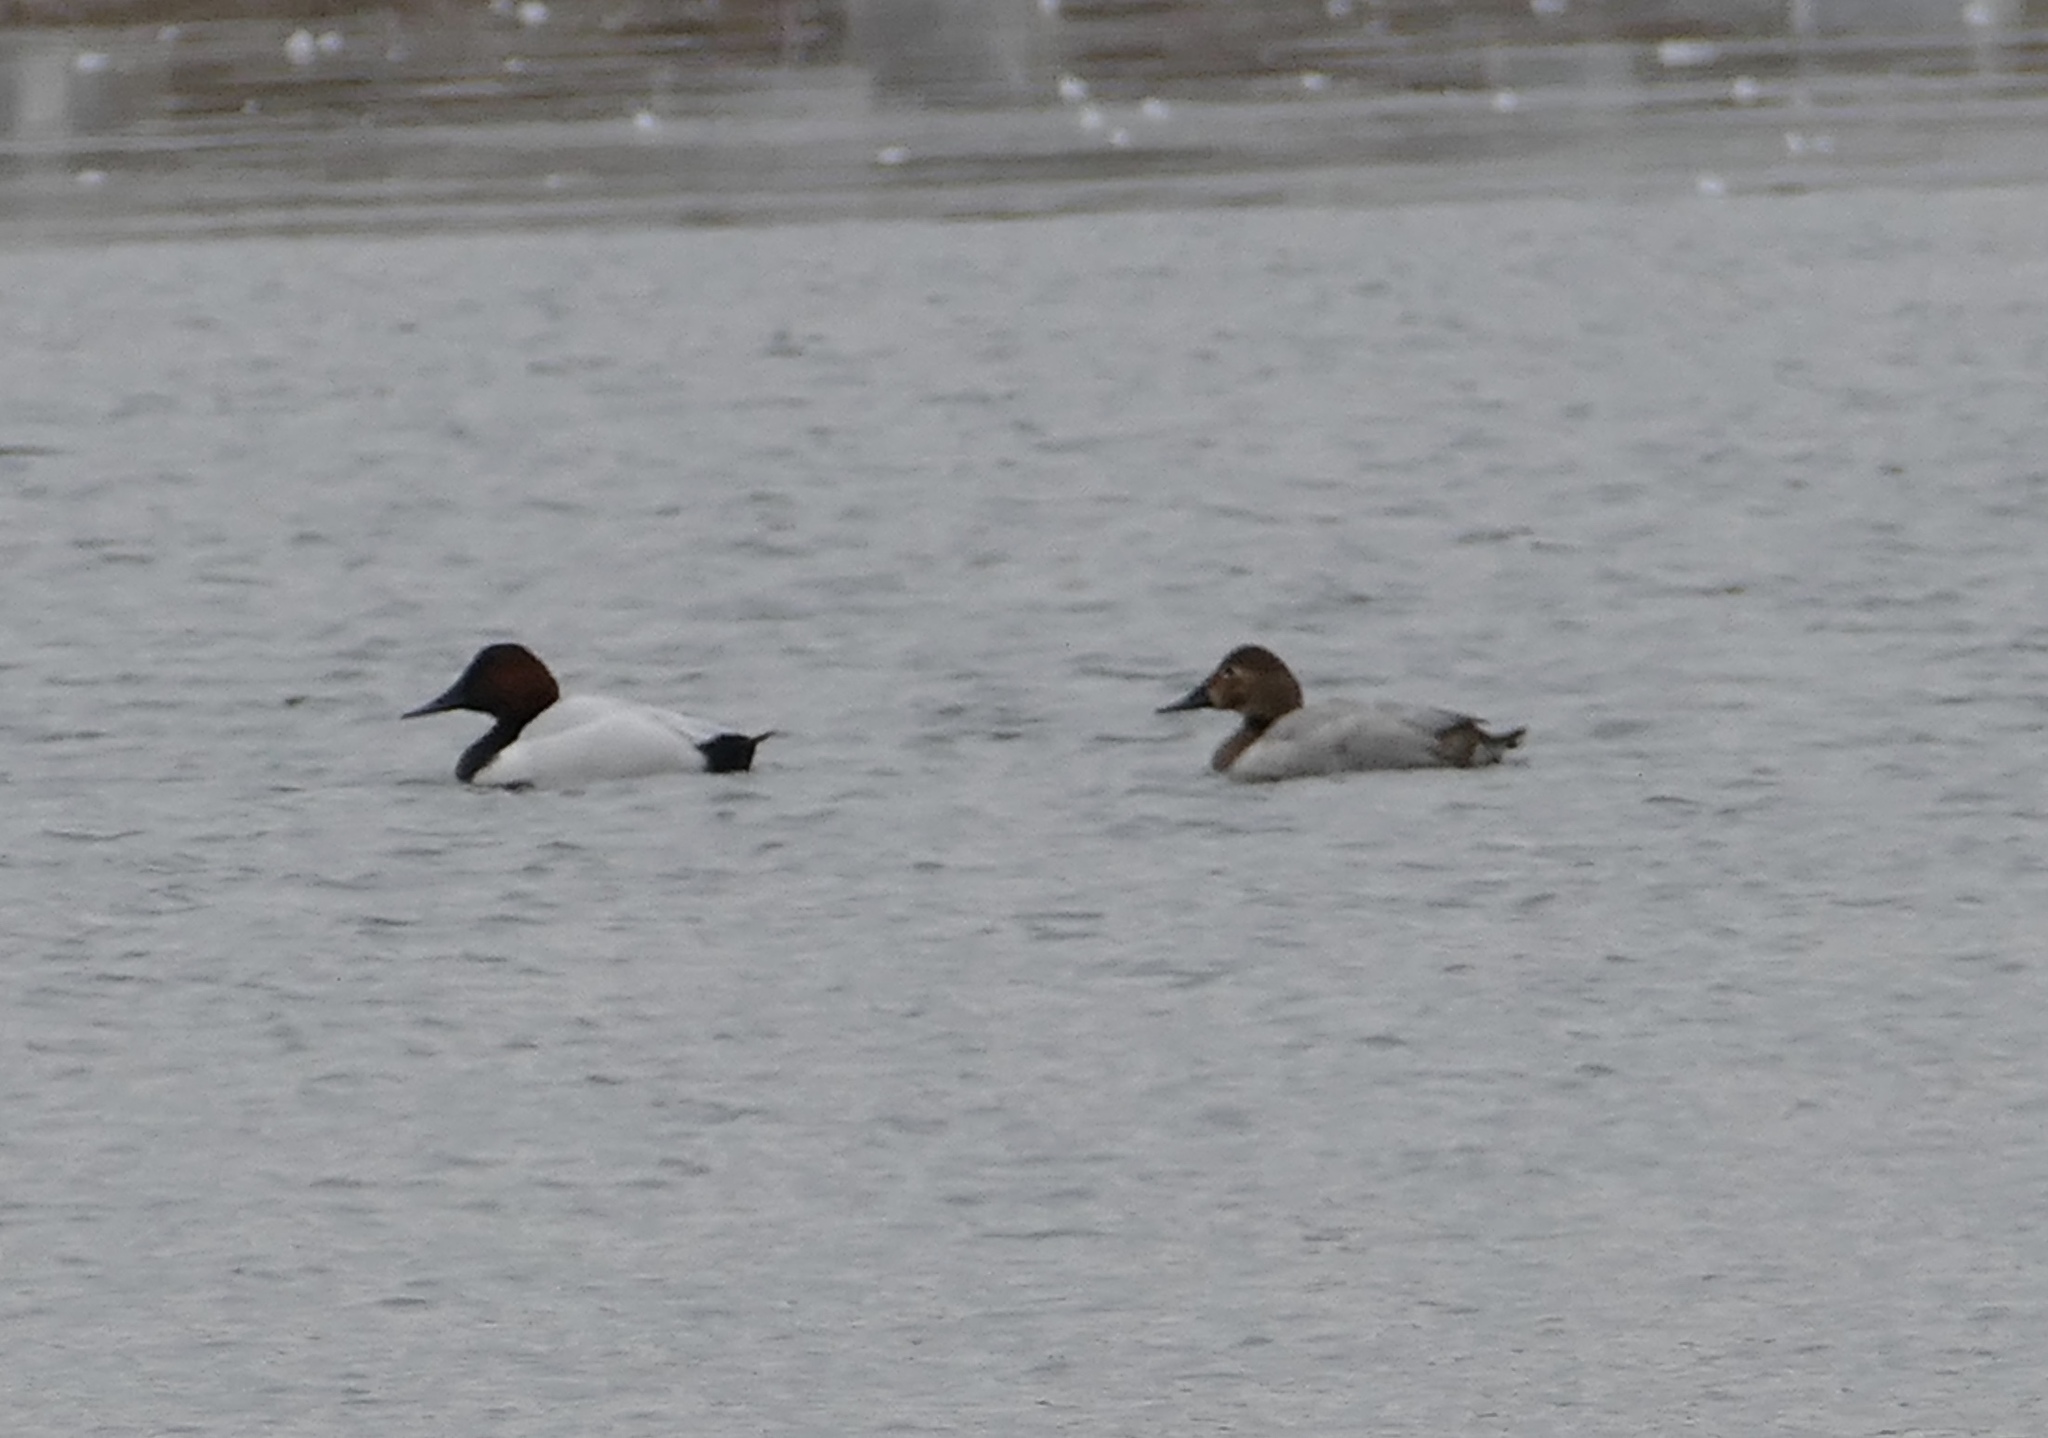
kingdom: Animalia
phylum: Chordata
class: Aves
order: Anseriformes
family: Anatidae
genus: Aythya
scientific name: Aythya valisineria
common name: Canvasback
